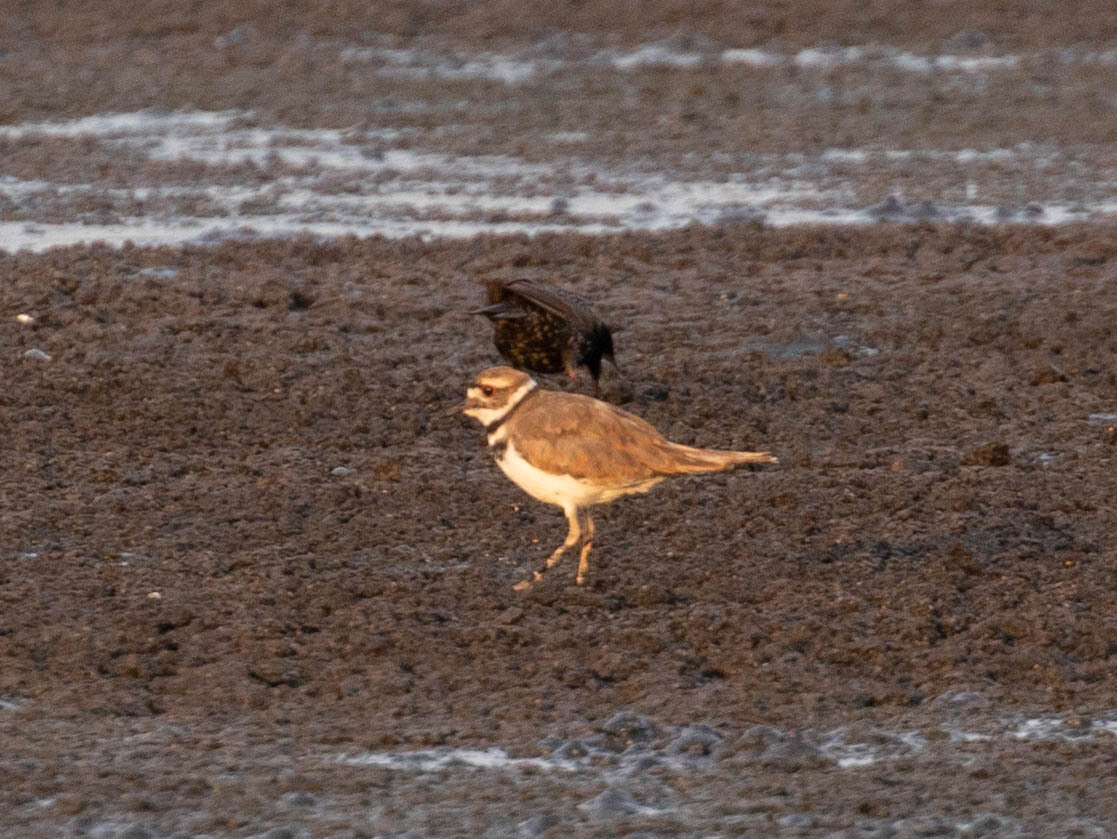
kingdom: Animalia
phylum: Chordata
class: Aves
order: Charadriiformes
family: Charadriidae
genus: Charadrius
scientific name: Charadrius vociferus
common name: Killdeer
